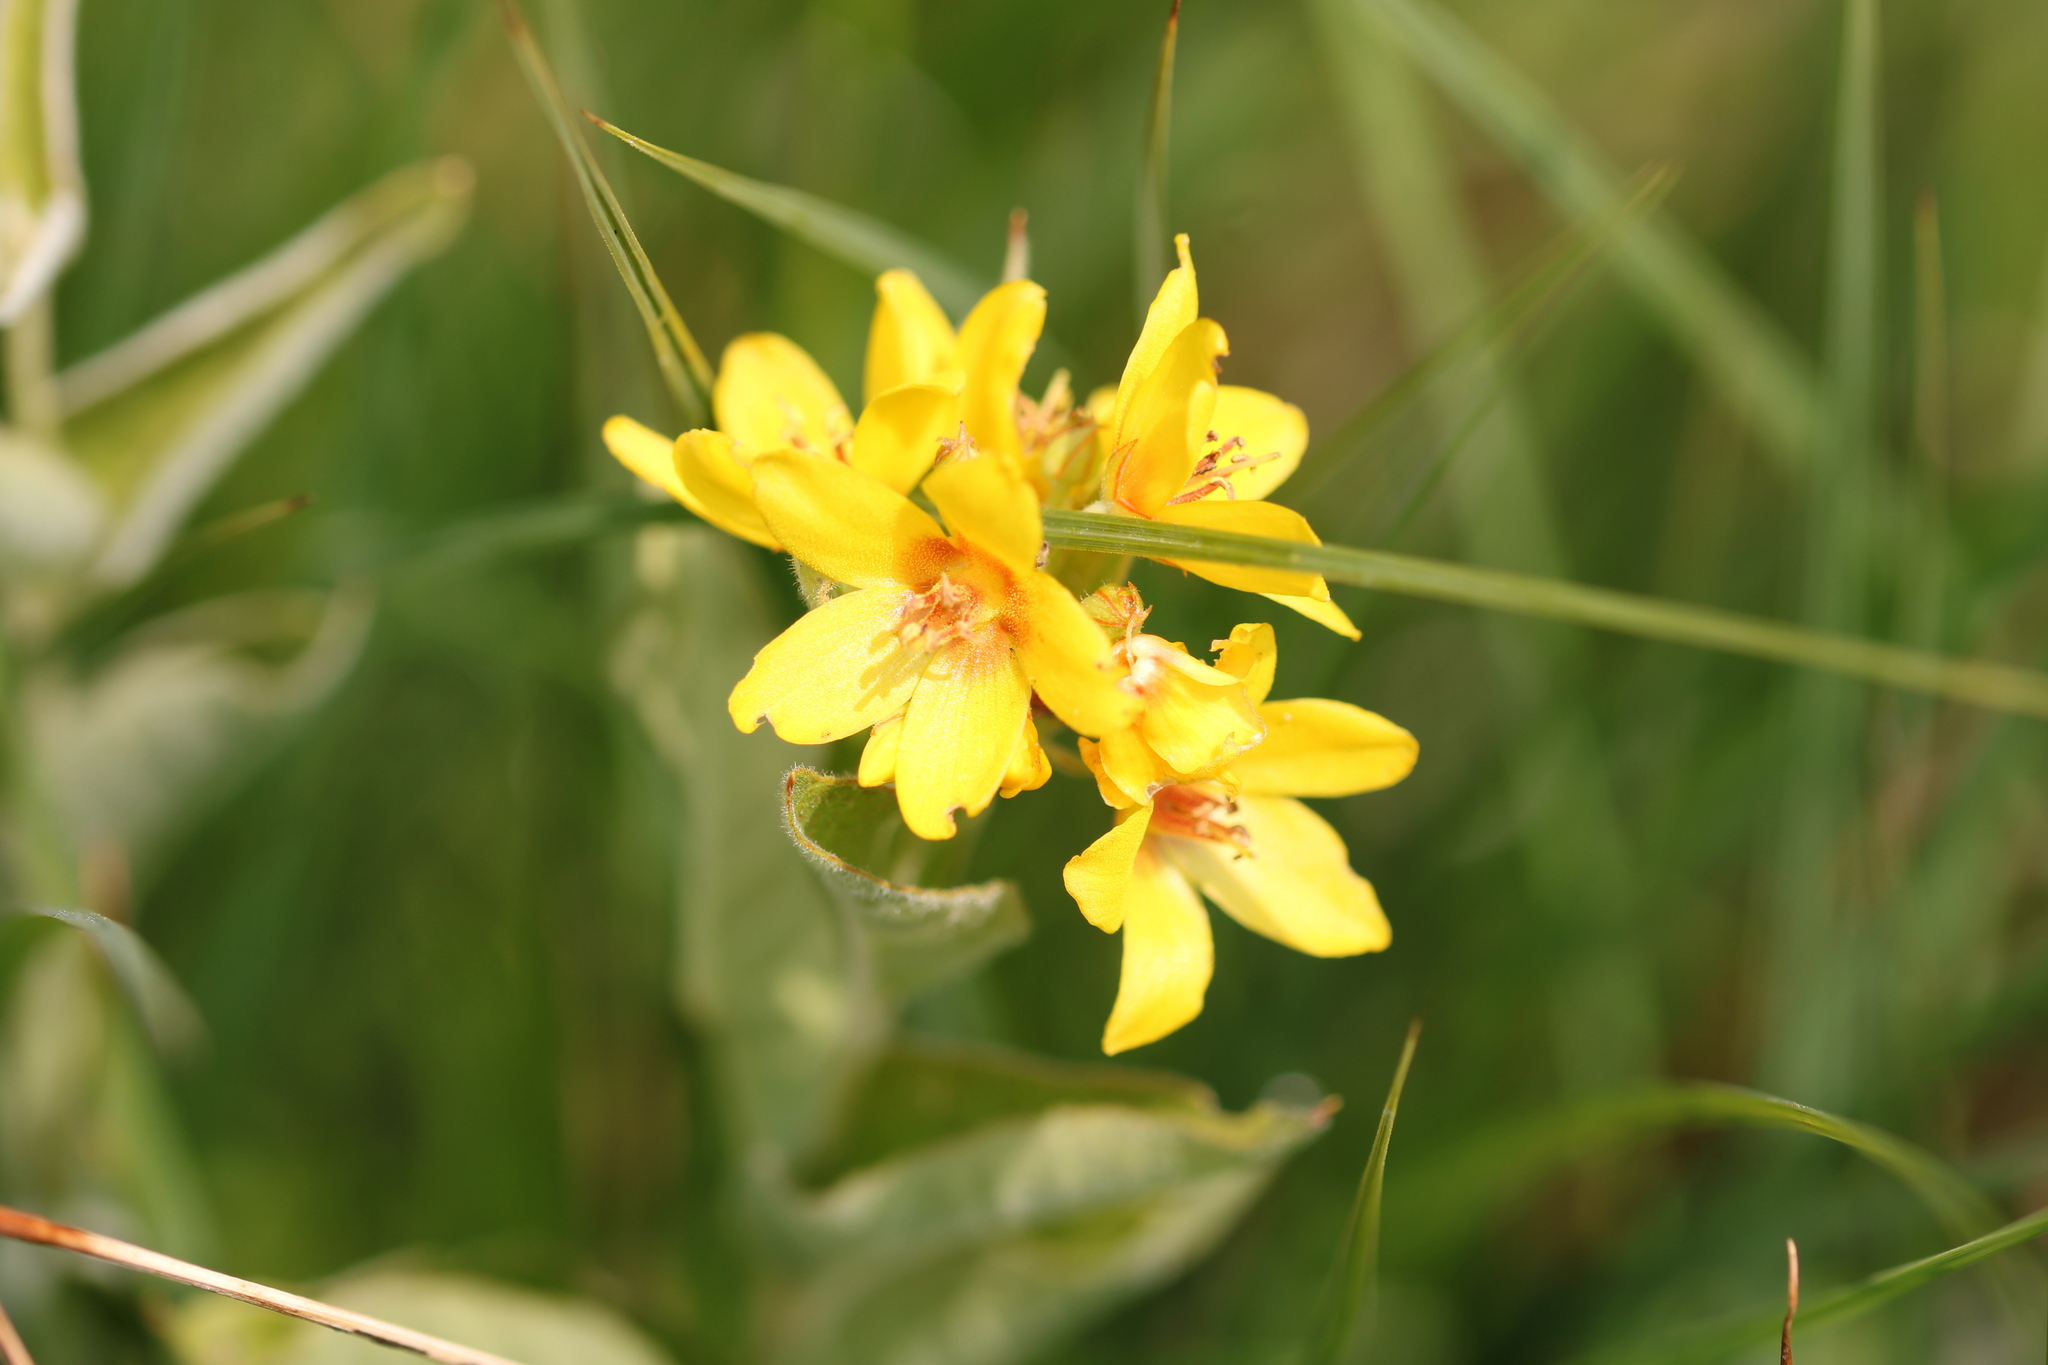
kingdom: Plantae
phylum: Tracheophyta
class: Magnoliopsida
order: Ericales
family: Primulaceae
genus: Lysimachia
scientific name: Lysimachia vulgaris
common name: Yellow loosestrife
